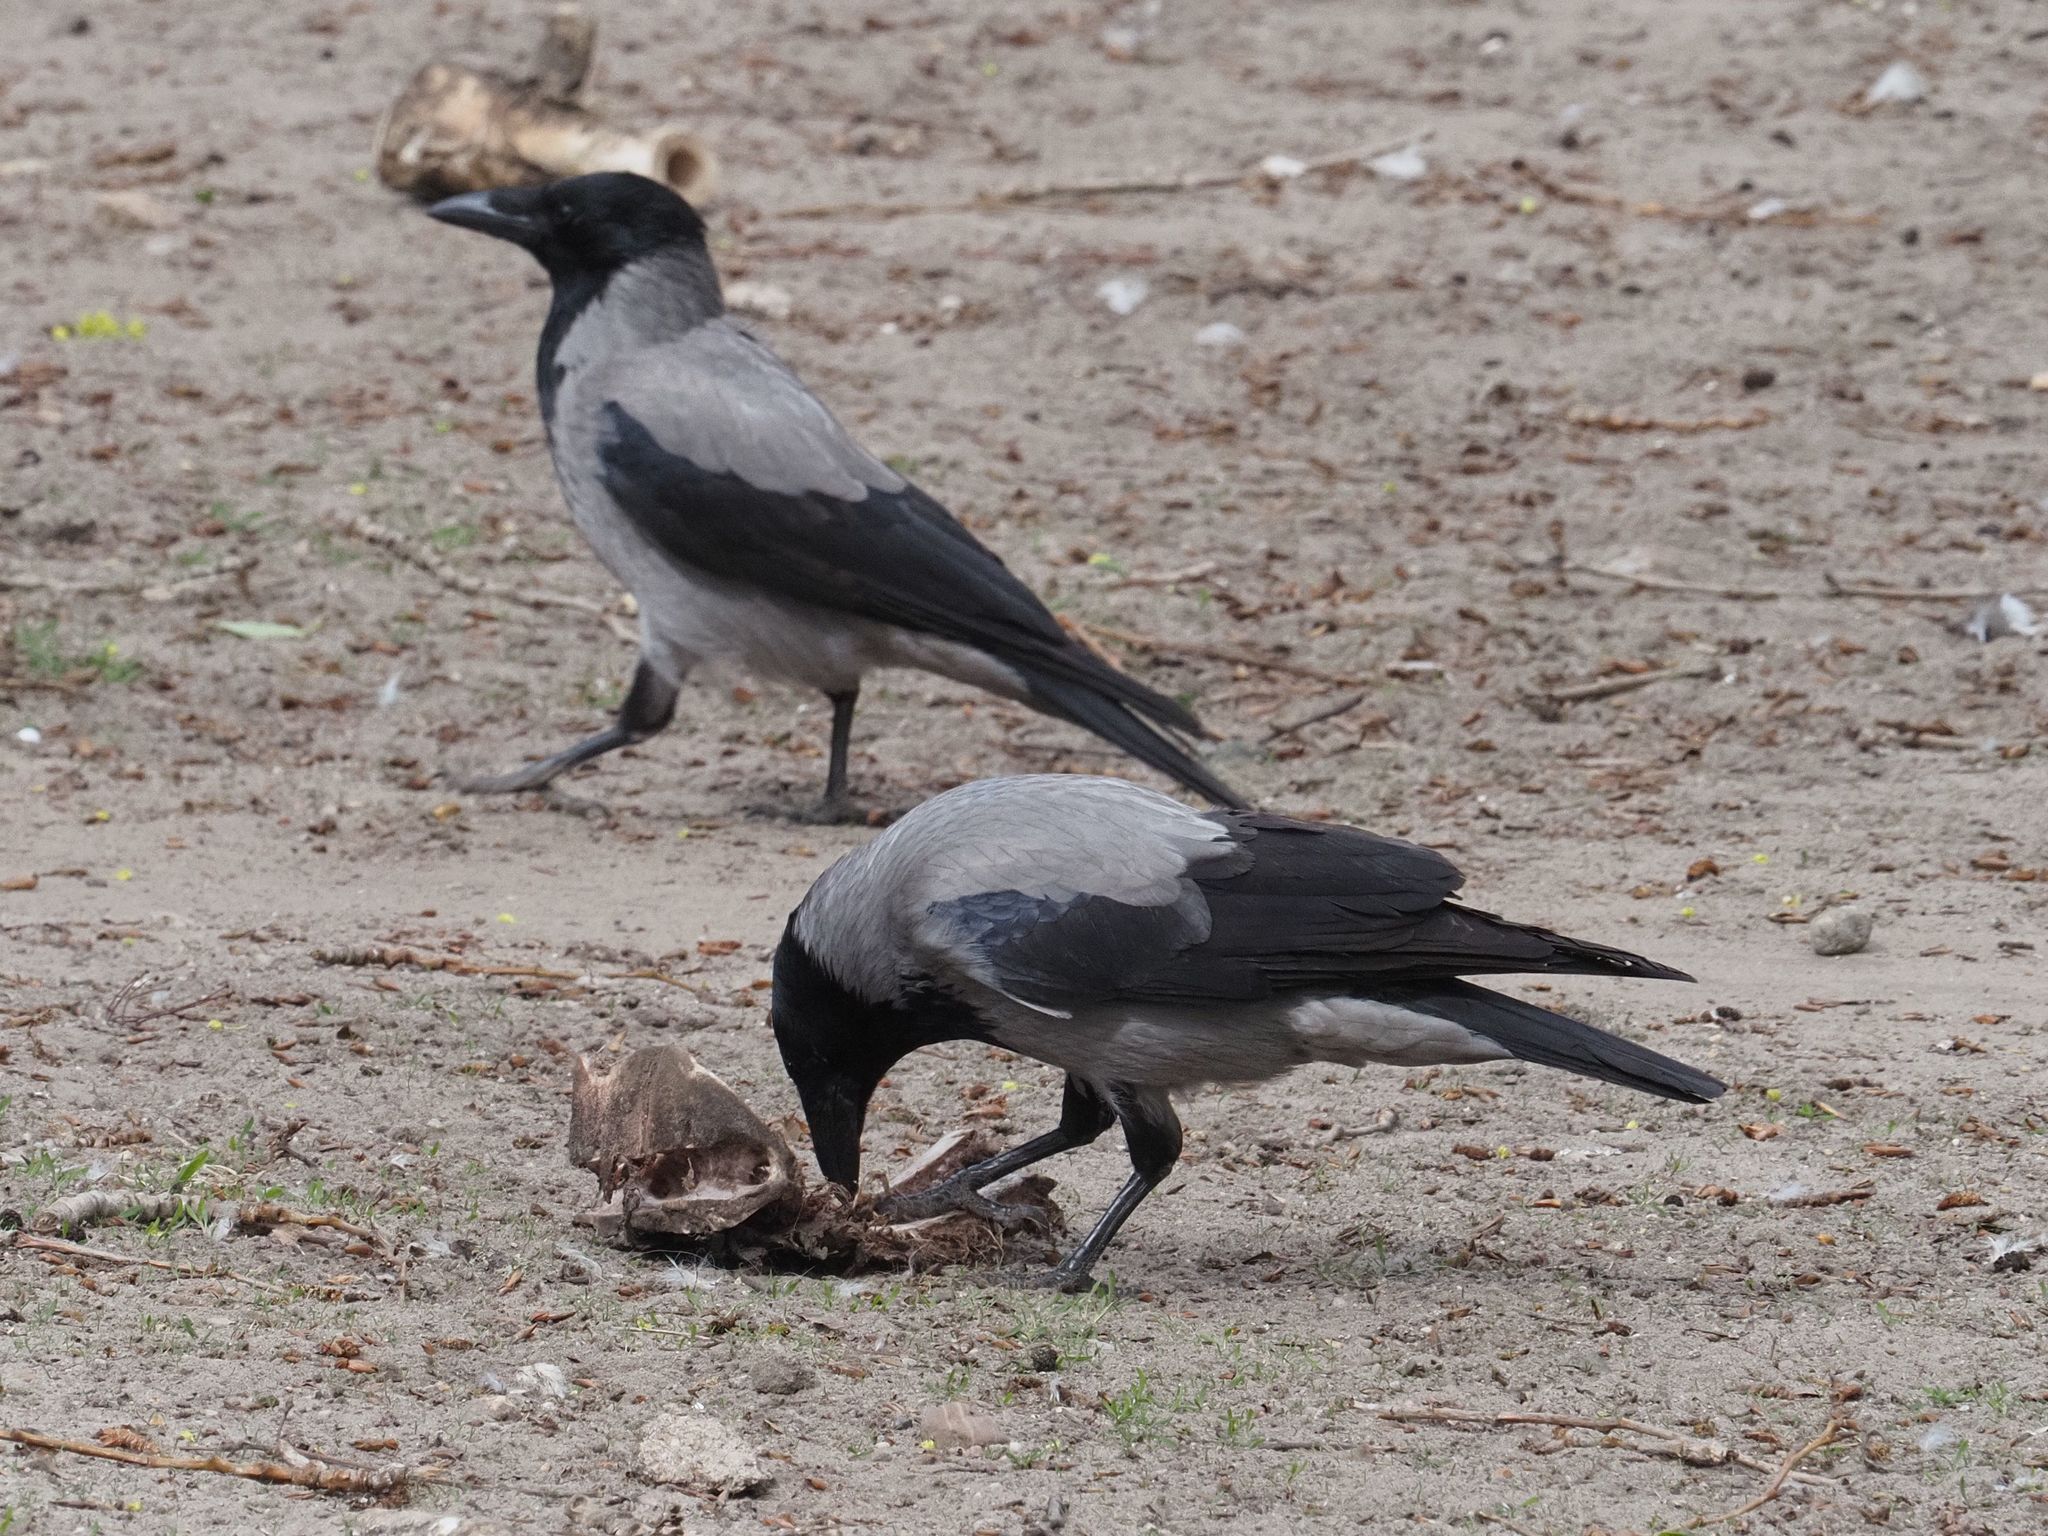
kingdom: Animalia
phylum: Chordata
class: Aves
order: Passeriformes
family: Corvidae
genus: Corvus
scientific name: Corvus cornix
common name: Hooded crow
